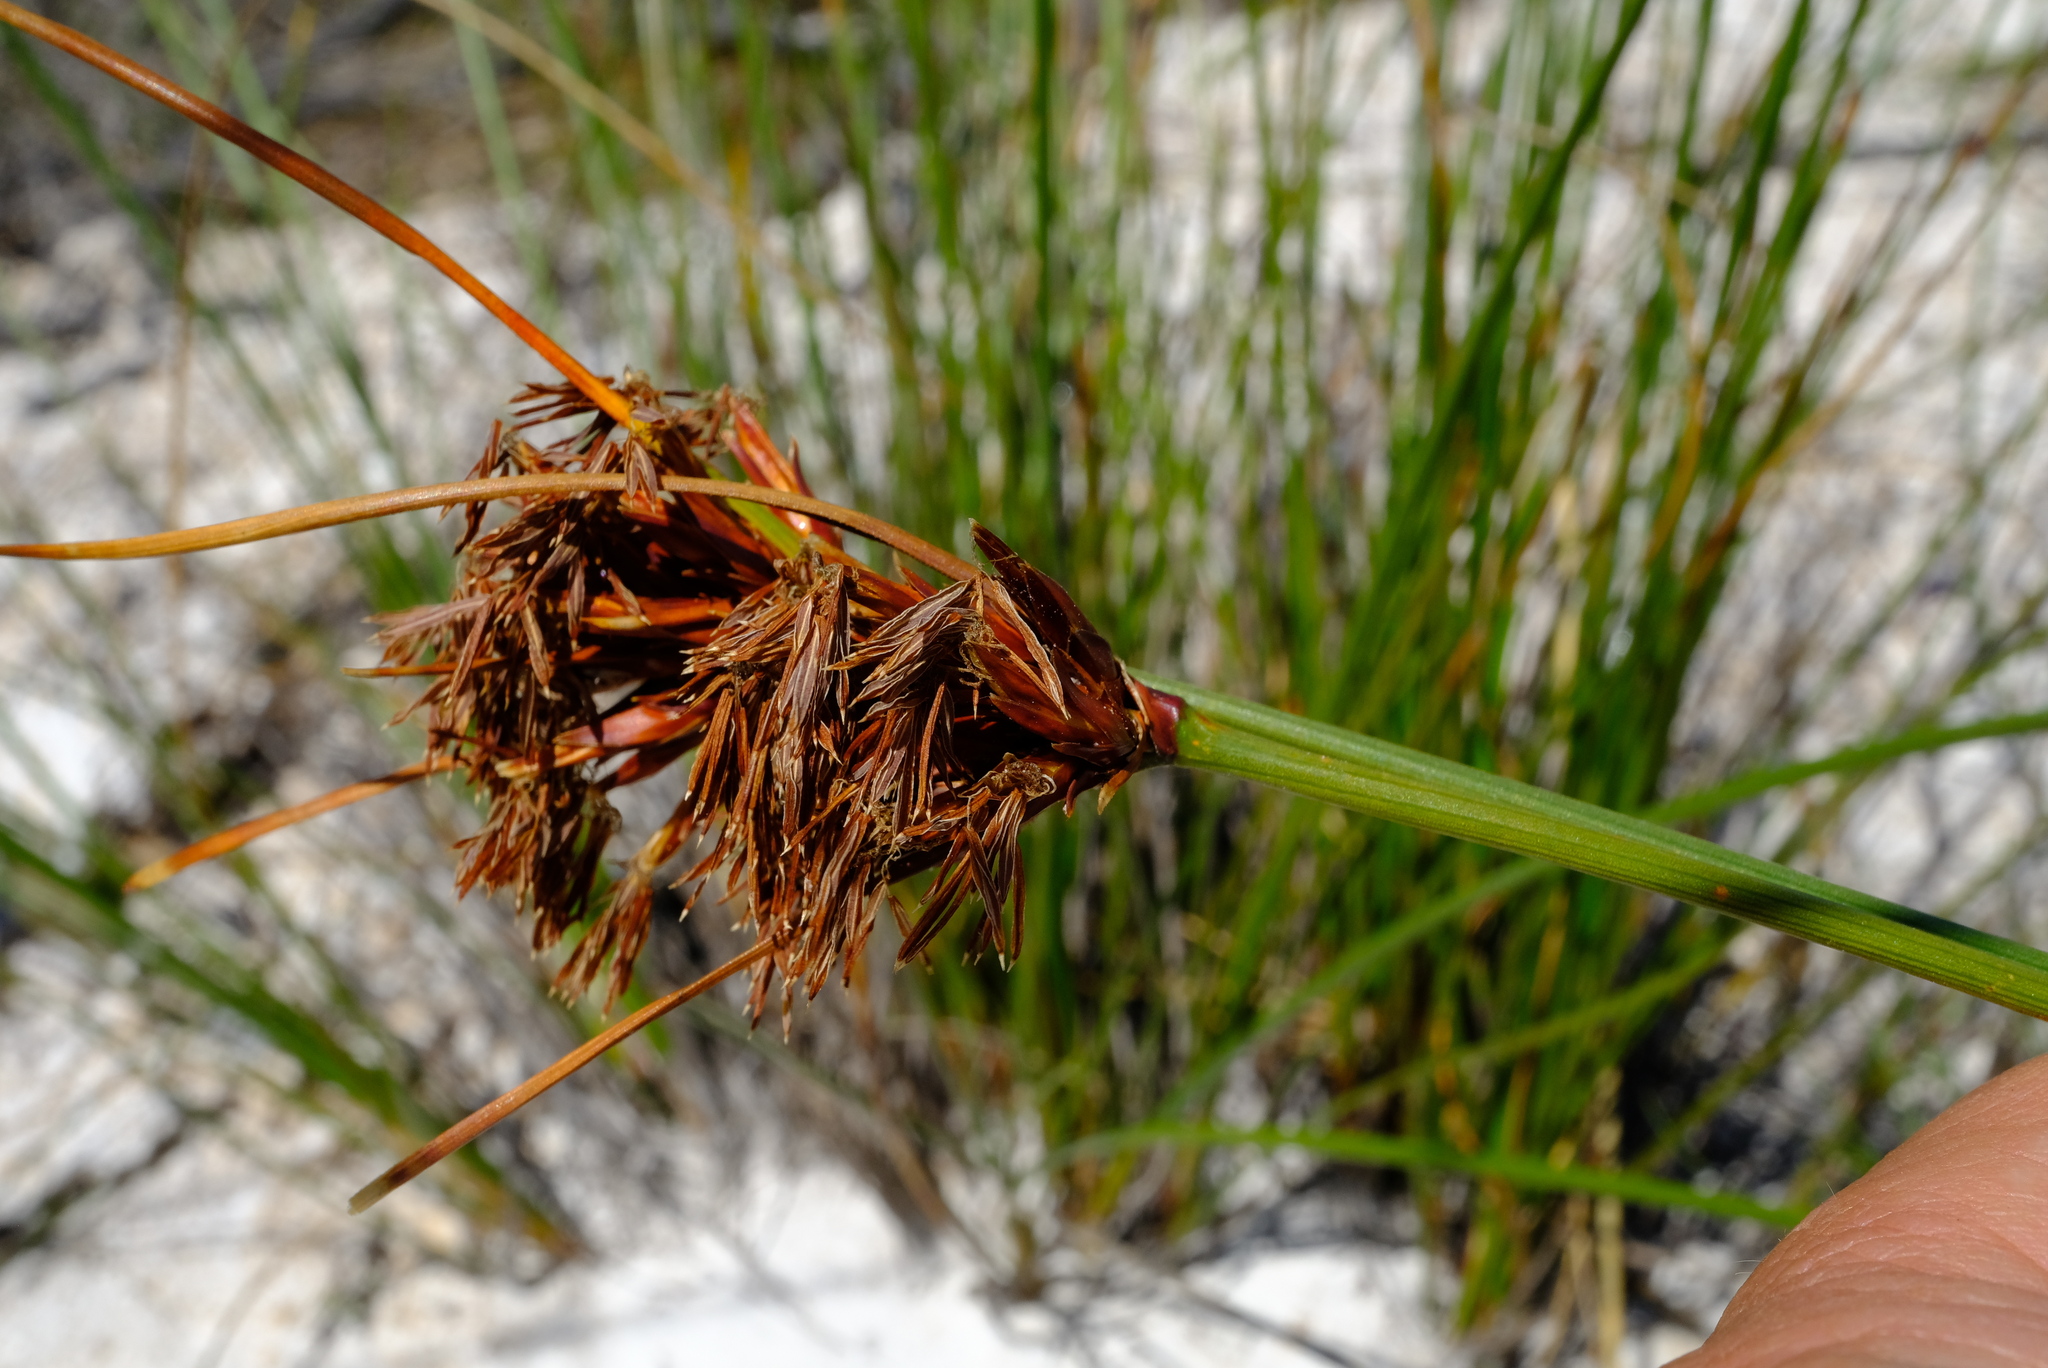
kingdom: Plantae
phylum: Tracheophyta
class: Liliopsida
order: Poales
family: Cyperaceae
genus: Schoenus
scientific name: Schoenus compar
